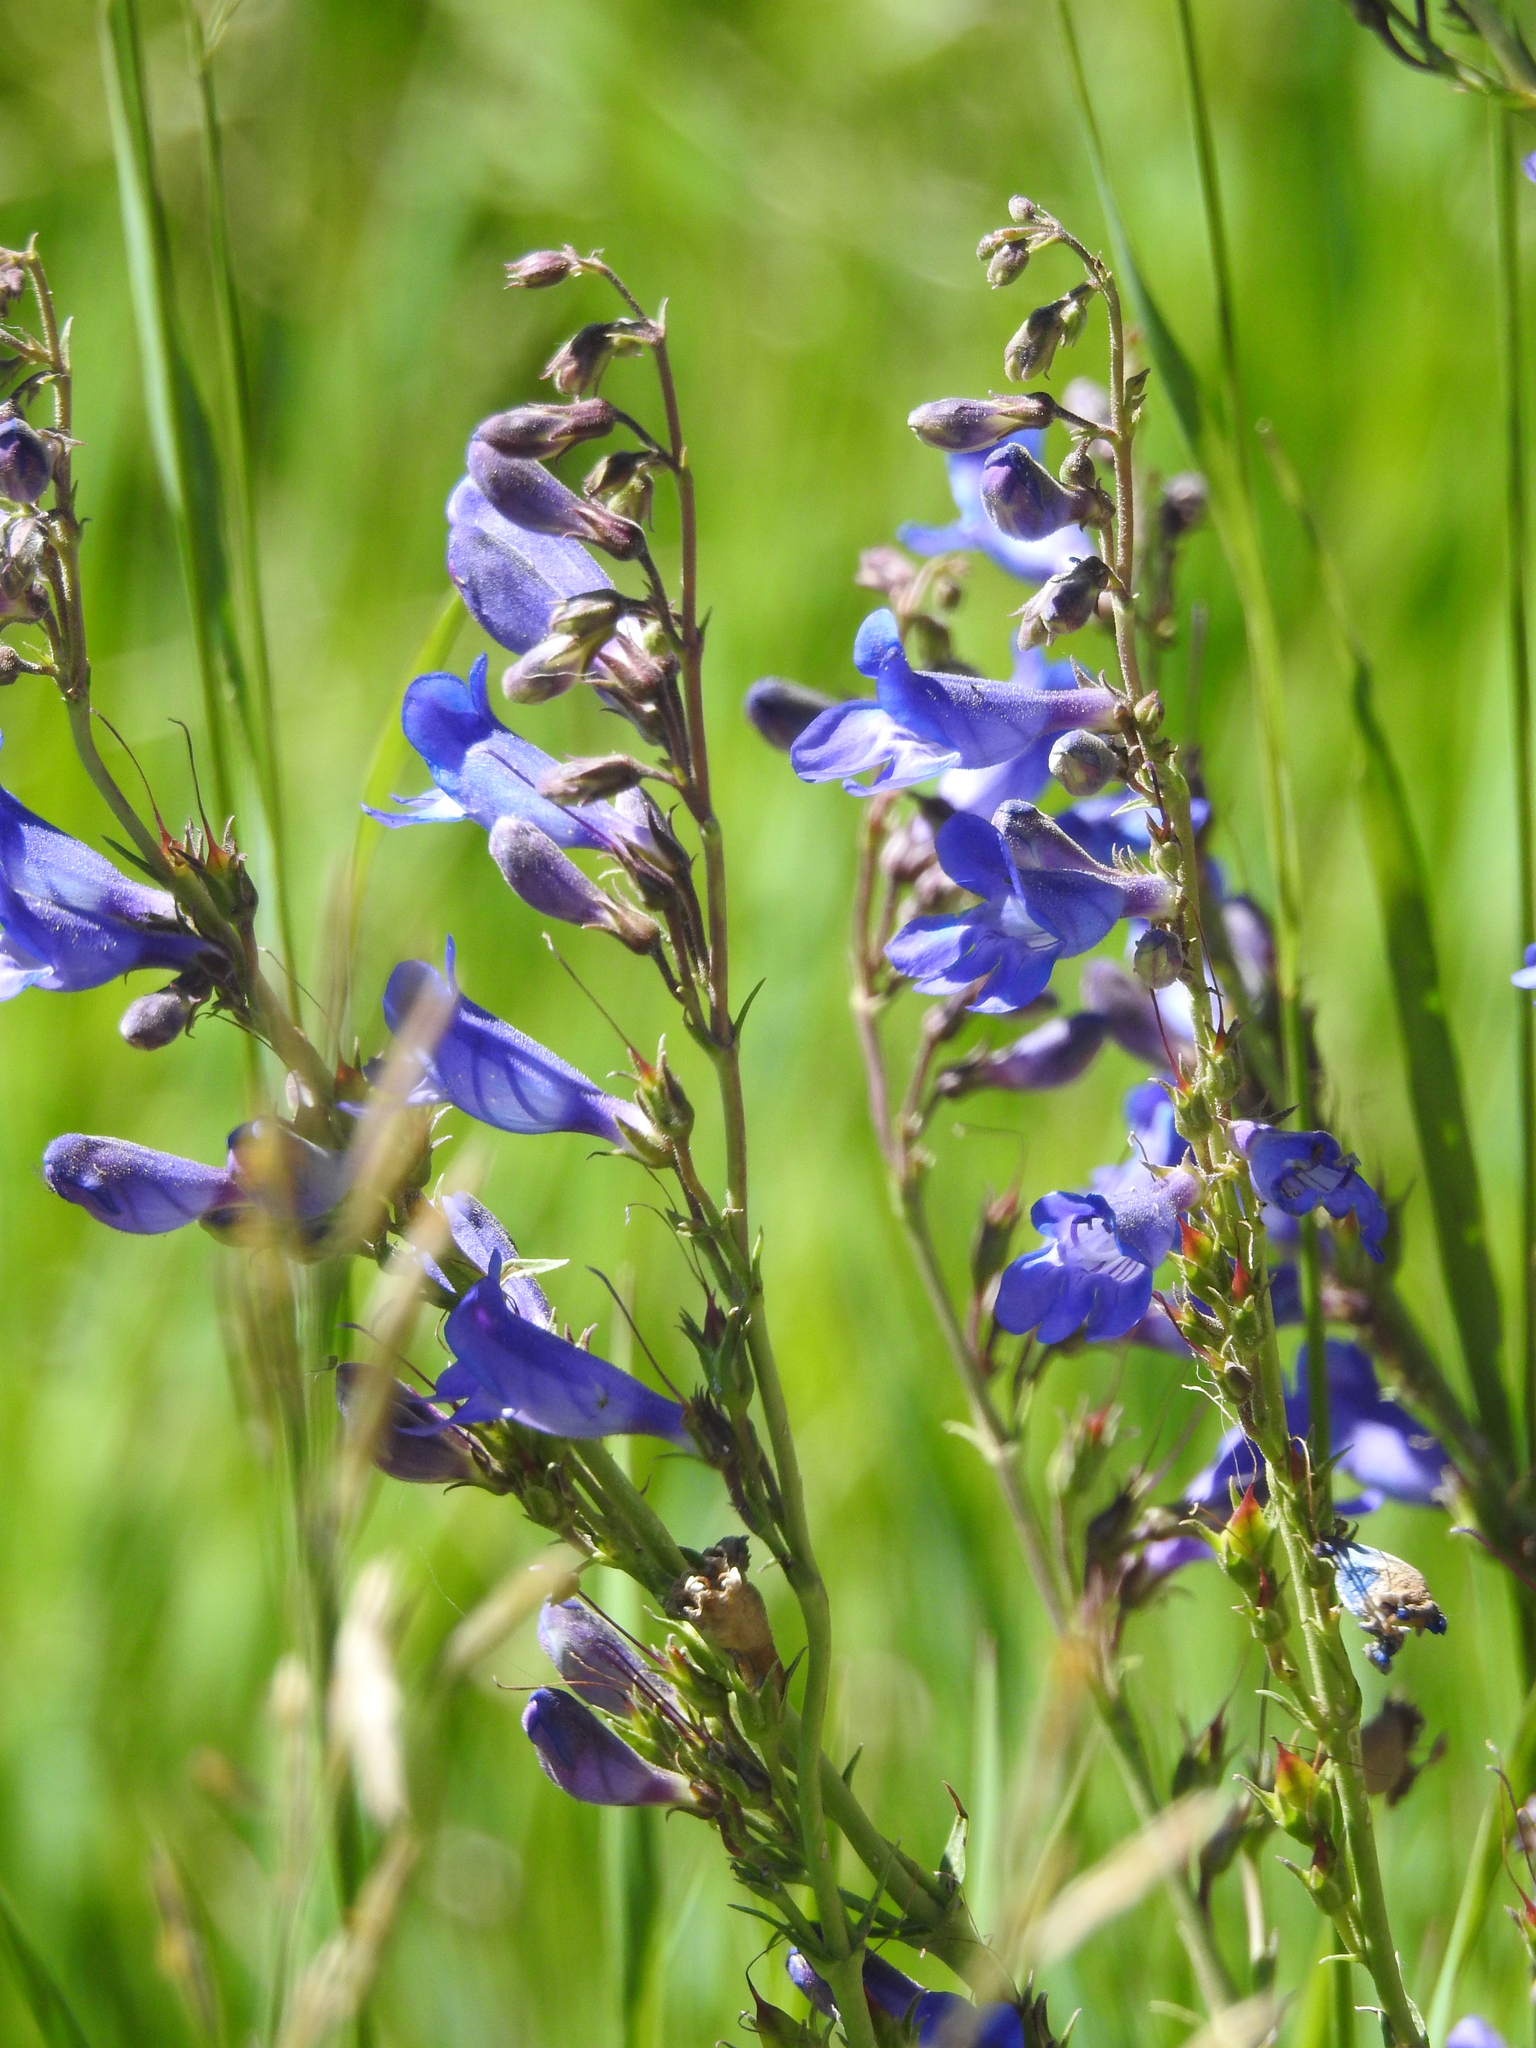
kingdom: Plantae
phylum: Tracheophyta
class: Magnoliopsida
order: Lamiales
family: Plantaginaceae
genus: Penstemon
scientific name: Penstemon leiophyllus
